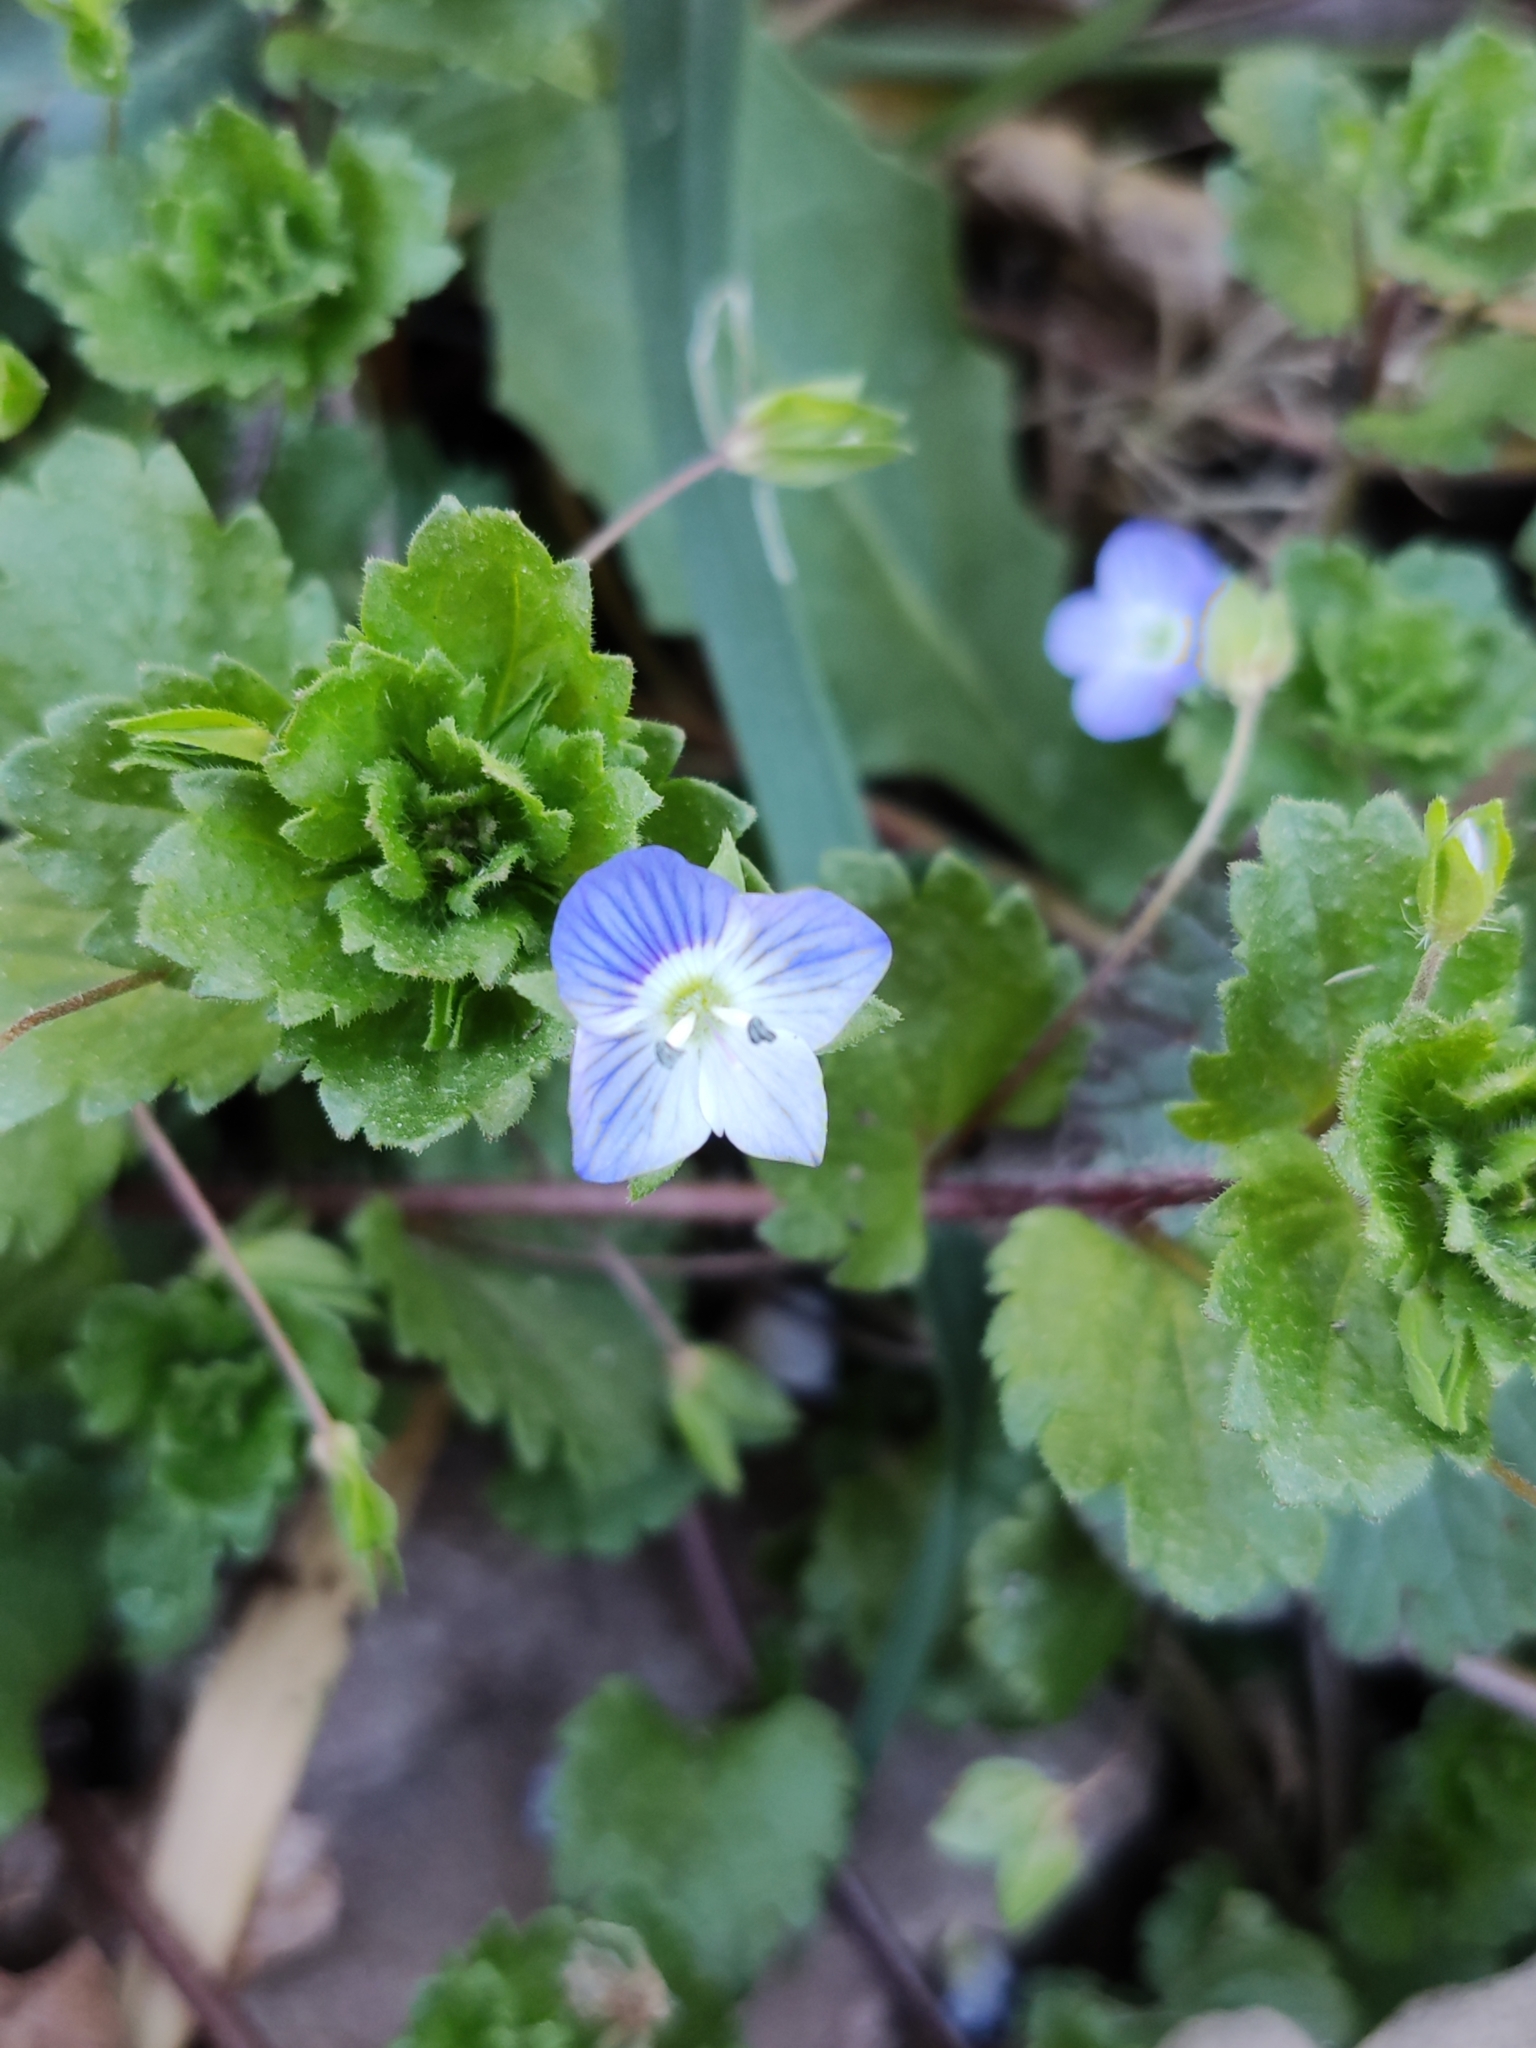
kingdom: Plantae
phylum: Tracheophyta
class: Magnoliopsida
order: Lamiales
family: Plantaginaceae
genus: Veronica
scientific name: Veronica persica
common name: Common field-speedwell
